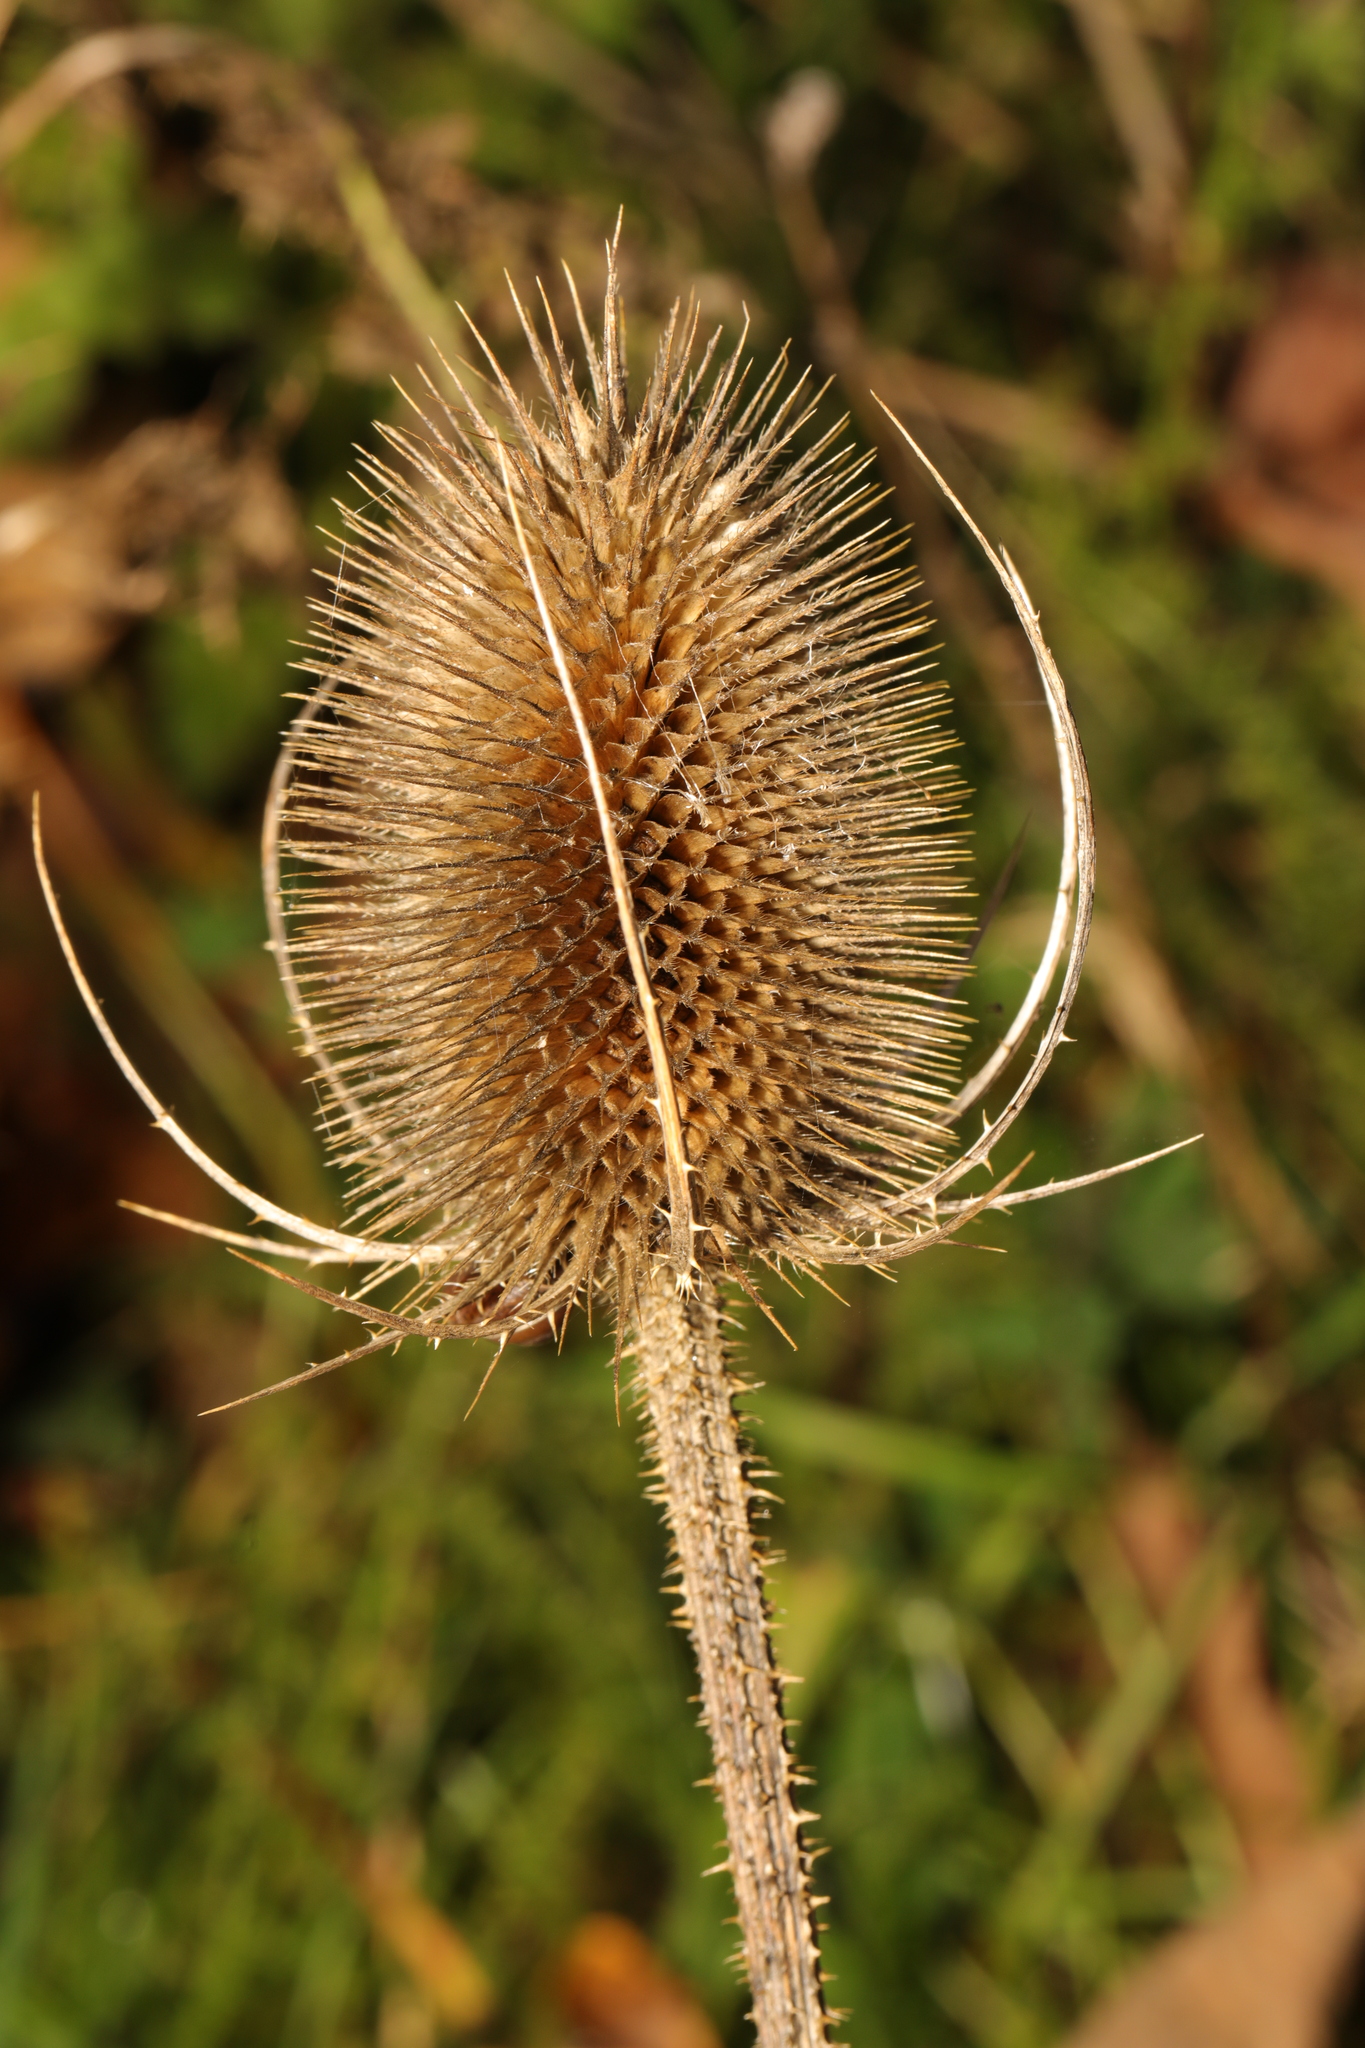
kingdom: Plantae
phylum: Tracheophyta
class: Magnoliopsida
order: Dipsacales
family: Caprifoliaceae
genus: Dipsacus
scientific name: Dipsacus fullonum
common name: Teasel
